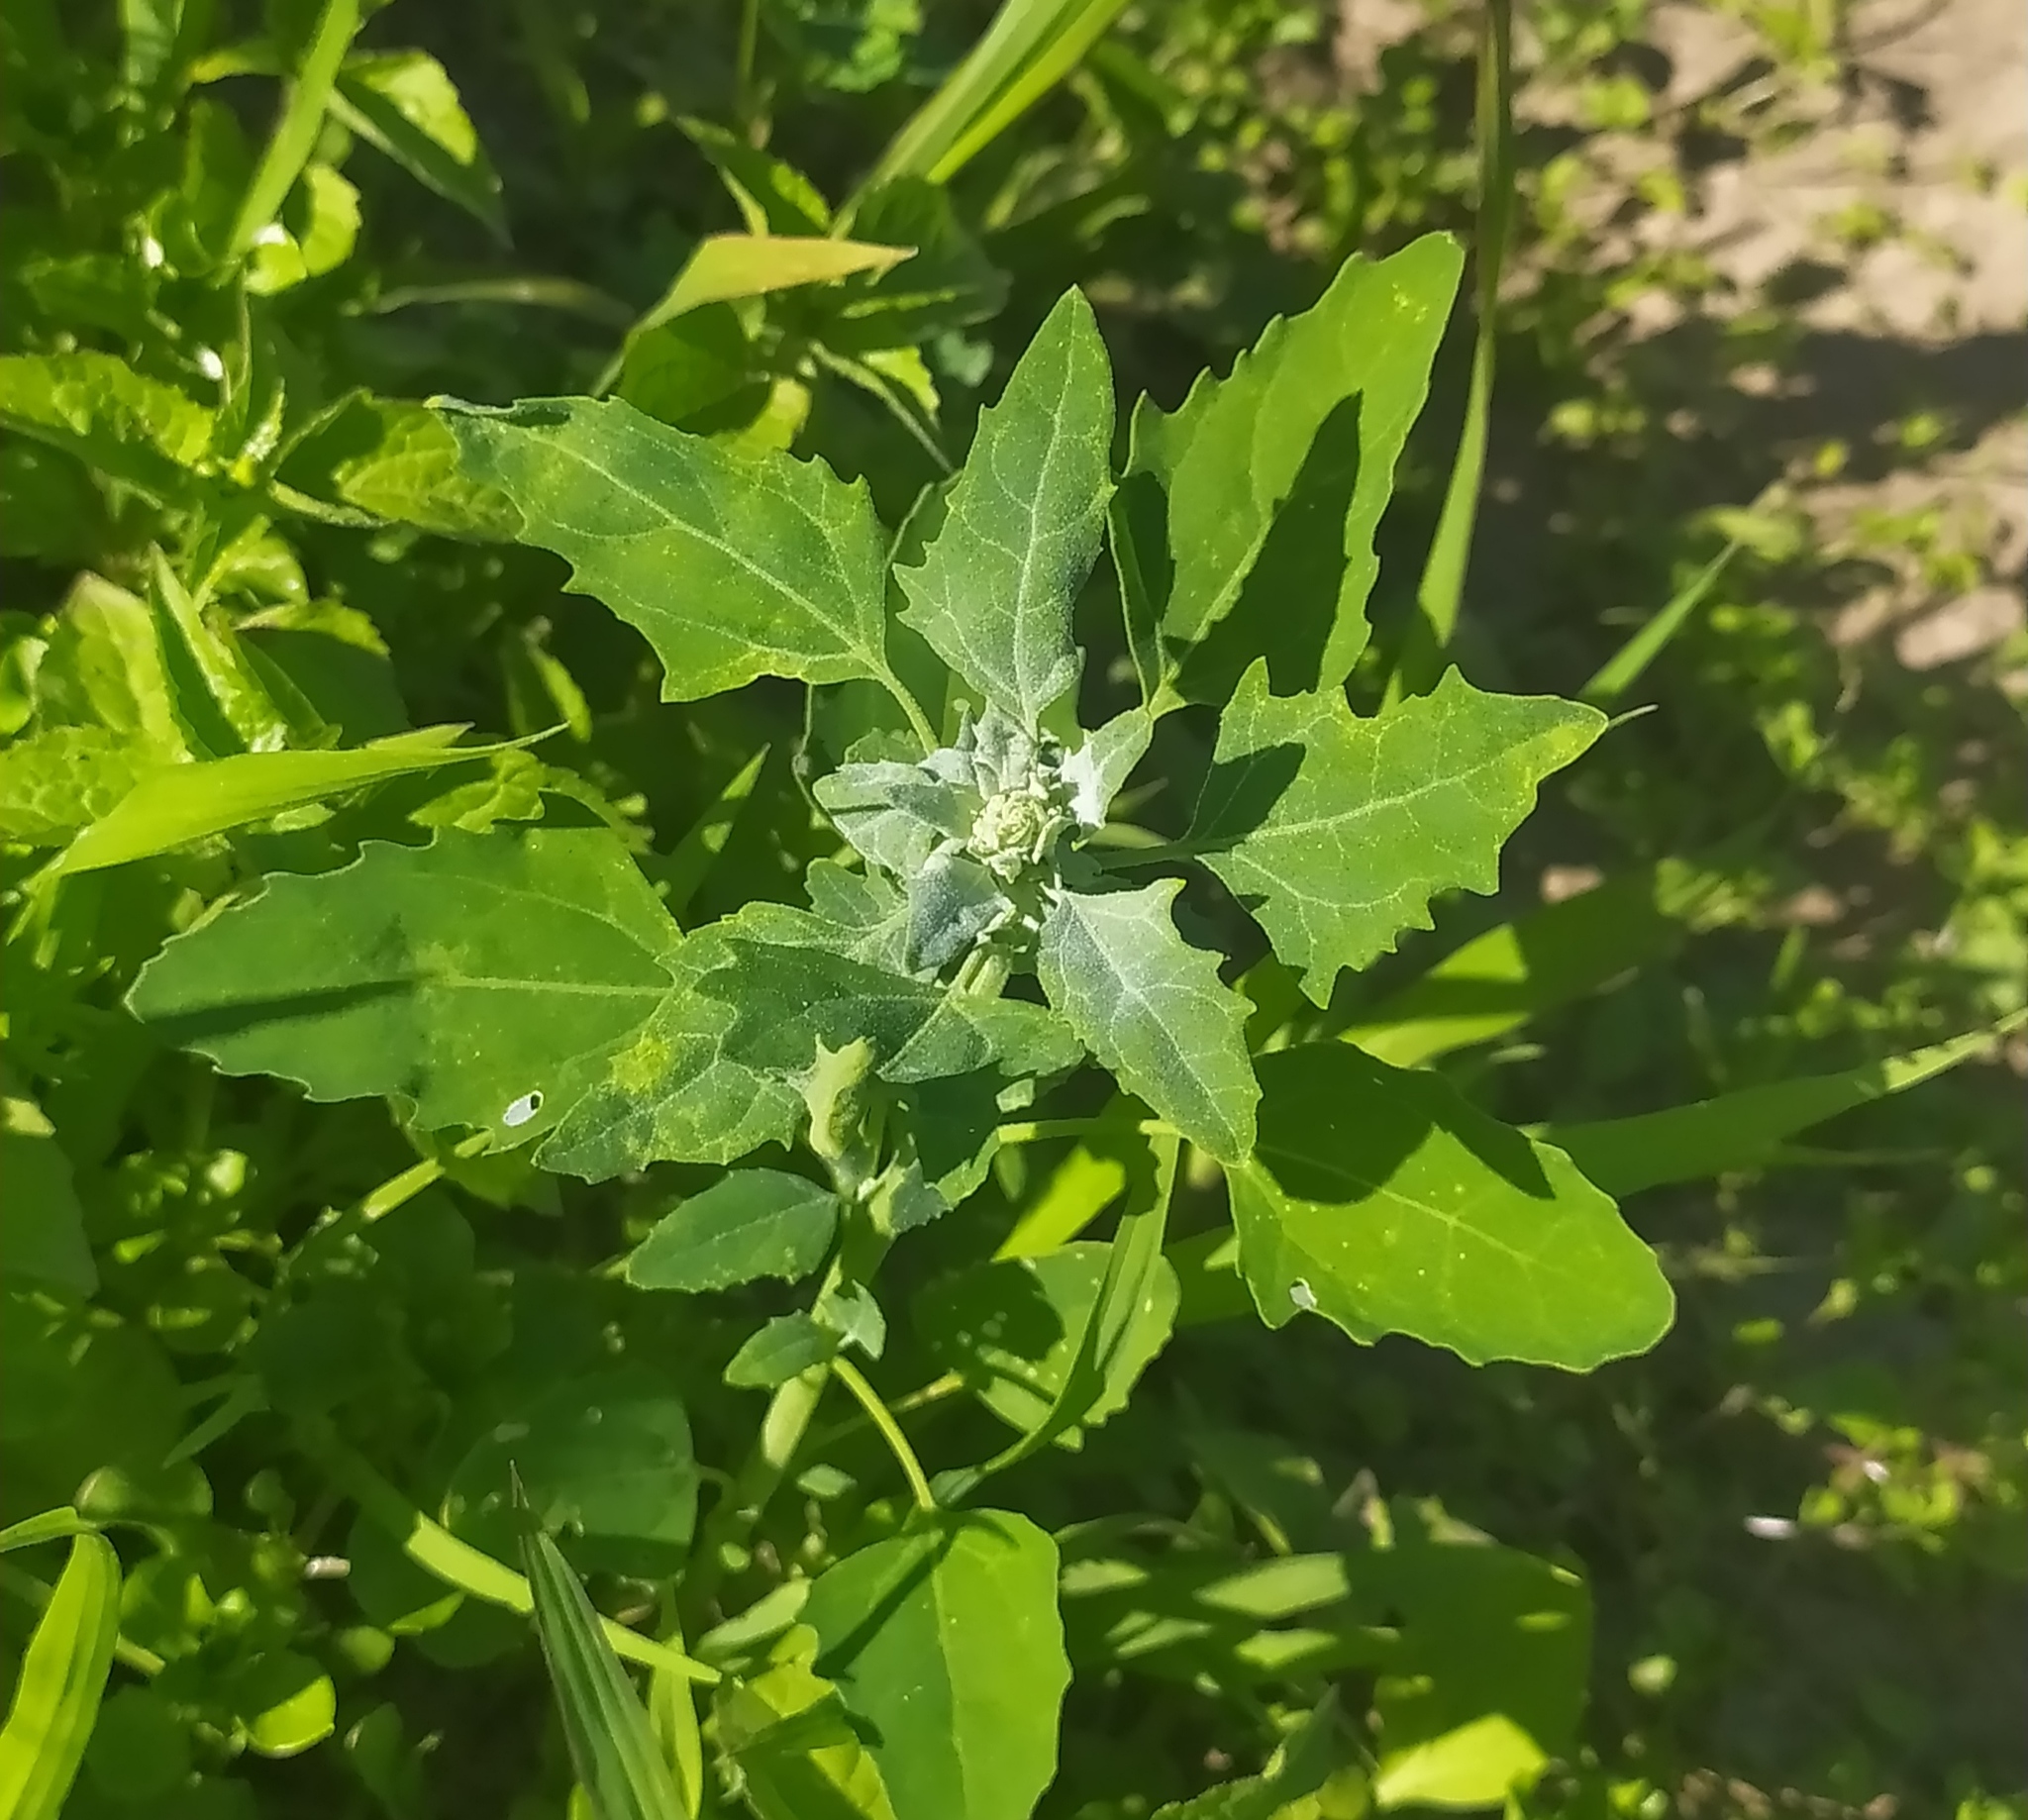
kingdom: Plantae
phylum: Tracheophyta
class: Magnoliopsida
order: Caryophyllales
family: Amaranthaceae
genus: Chenopodium
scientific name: Chenopodium album
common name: Fat-hen
